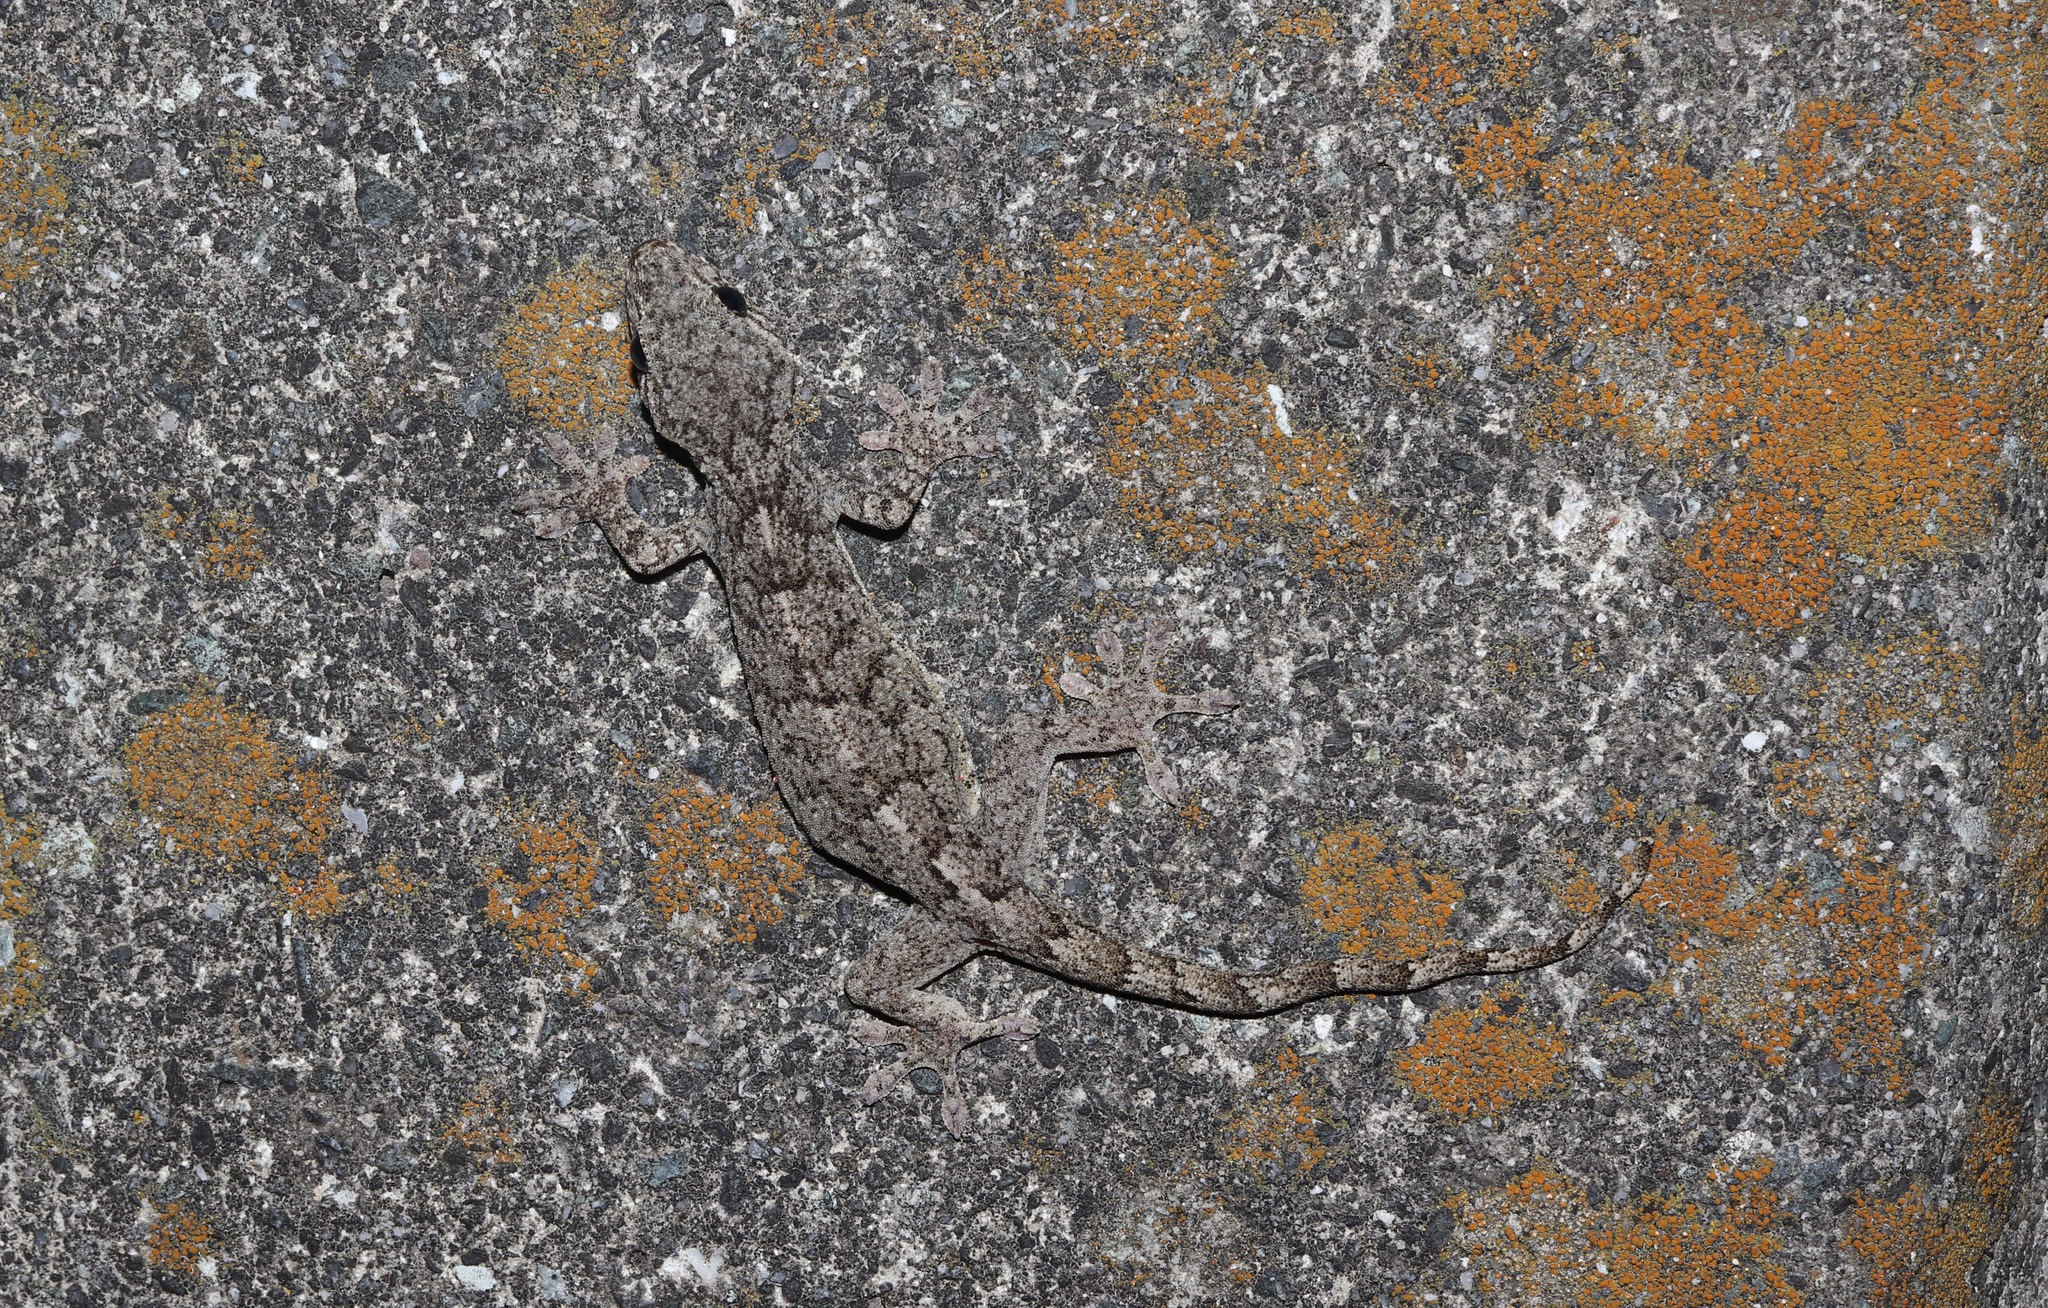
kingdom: Animalia
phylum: Chordata
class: Squamata
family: Gekkonidae
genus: Gekko
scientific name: Gekko japonicus
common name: Schlegel's japanese gecko
